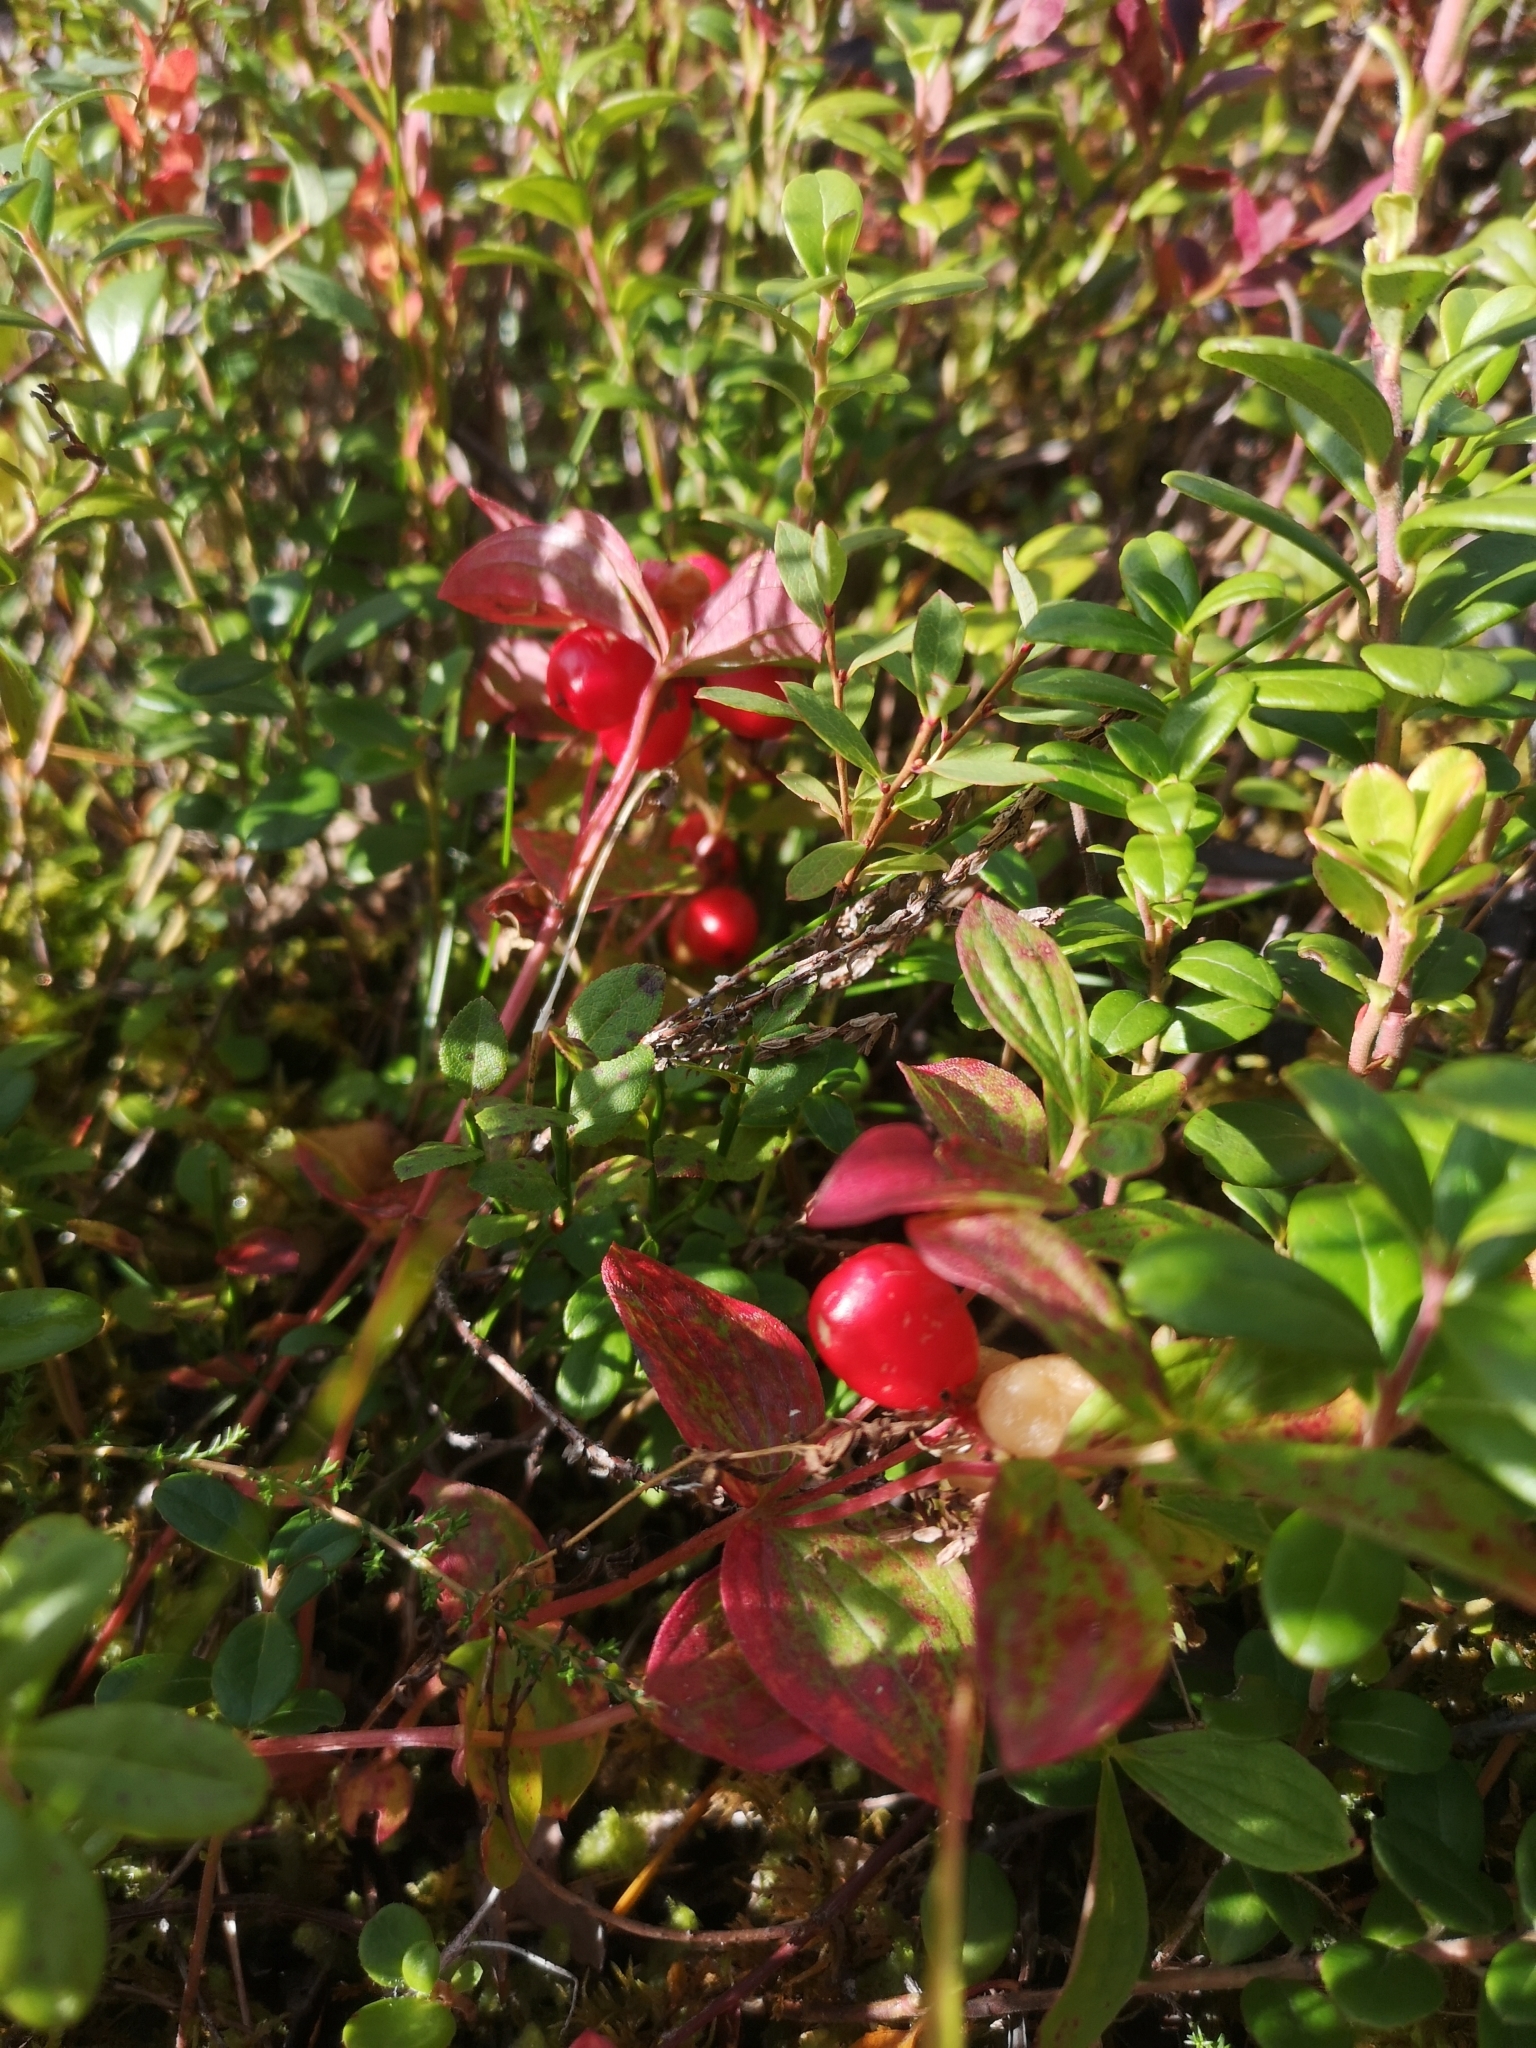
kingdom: Plantae
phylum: Tracheophyta
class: Magnoliopsida
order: Cornales
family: Cornaceae
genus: Cornus
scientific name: Cornus suecica
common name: Dwarf cornel
